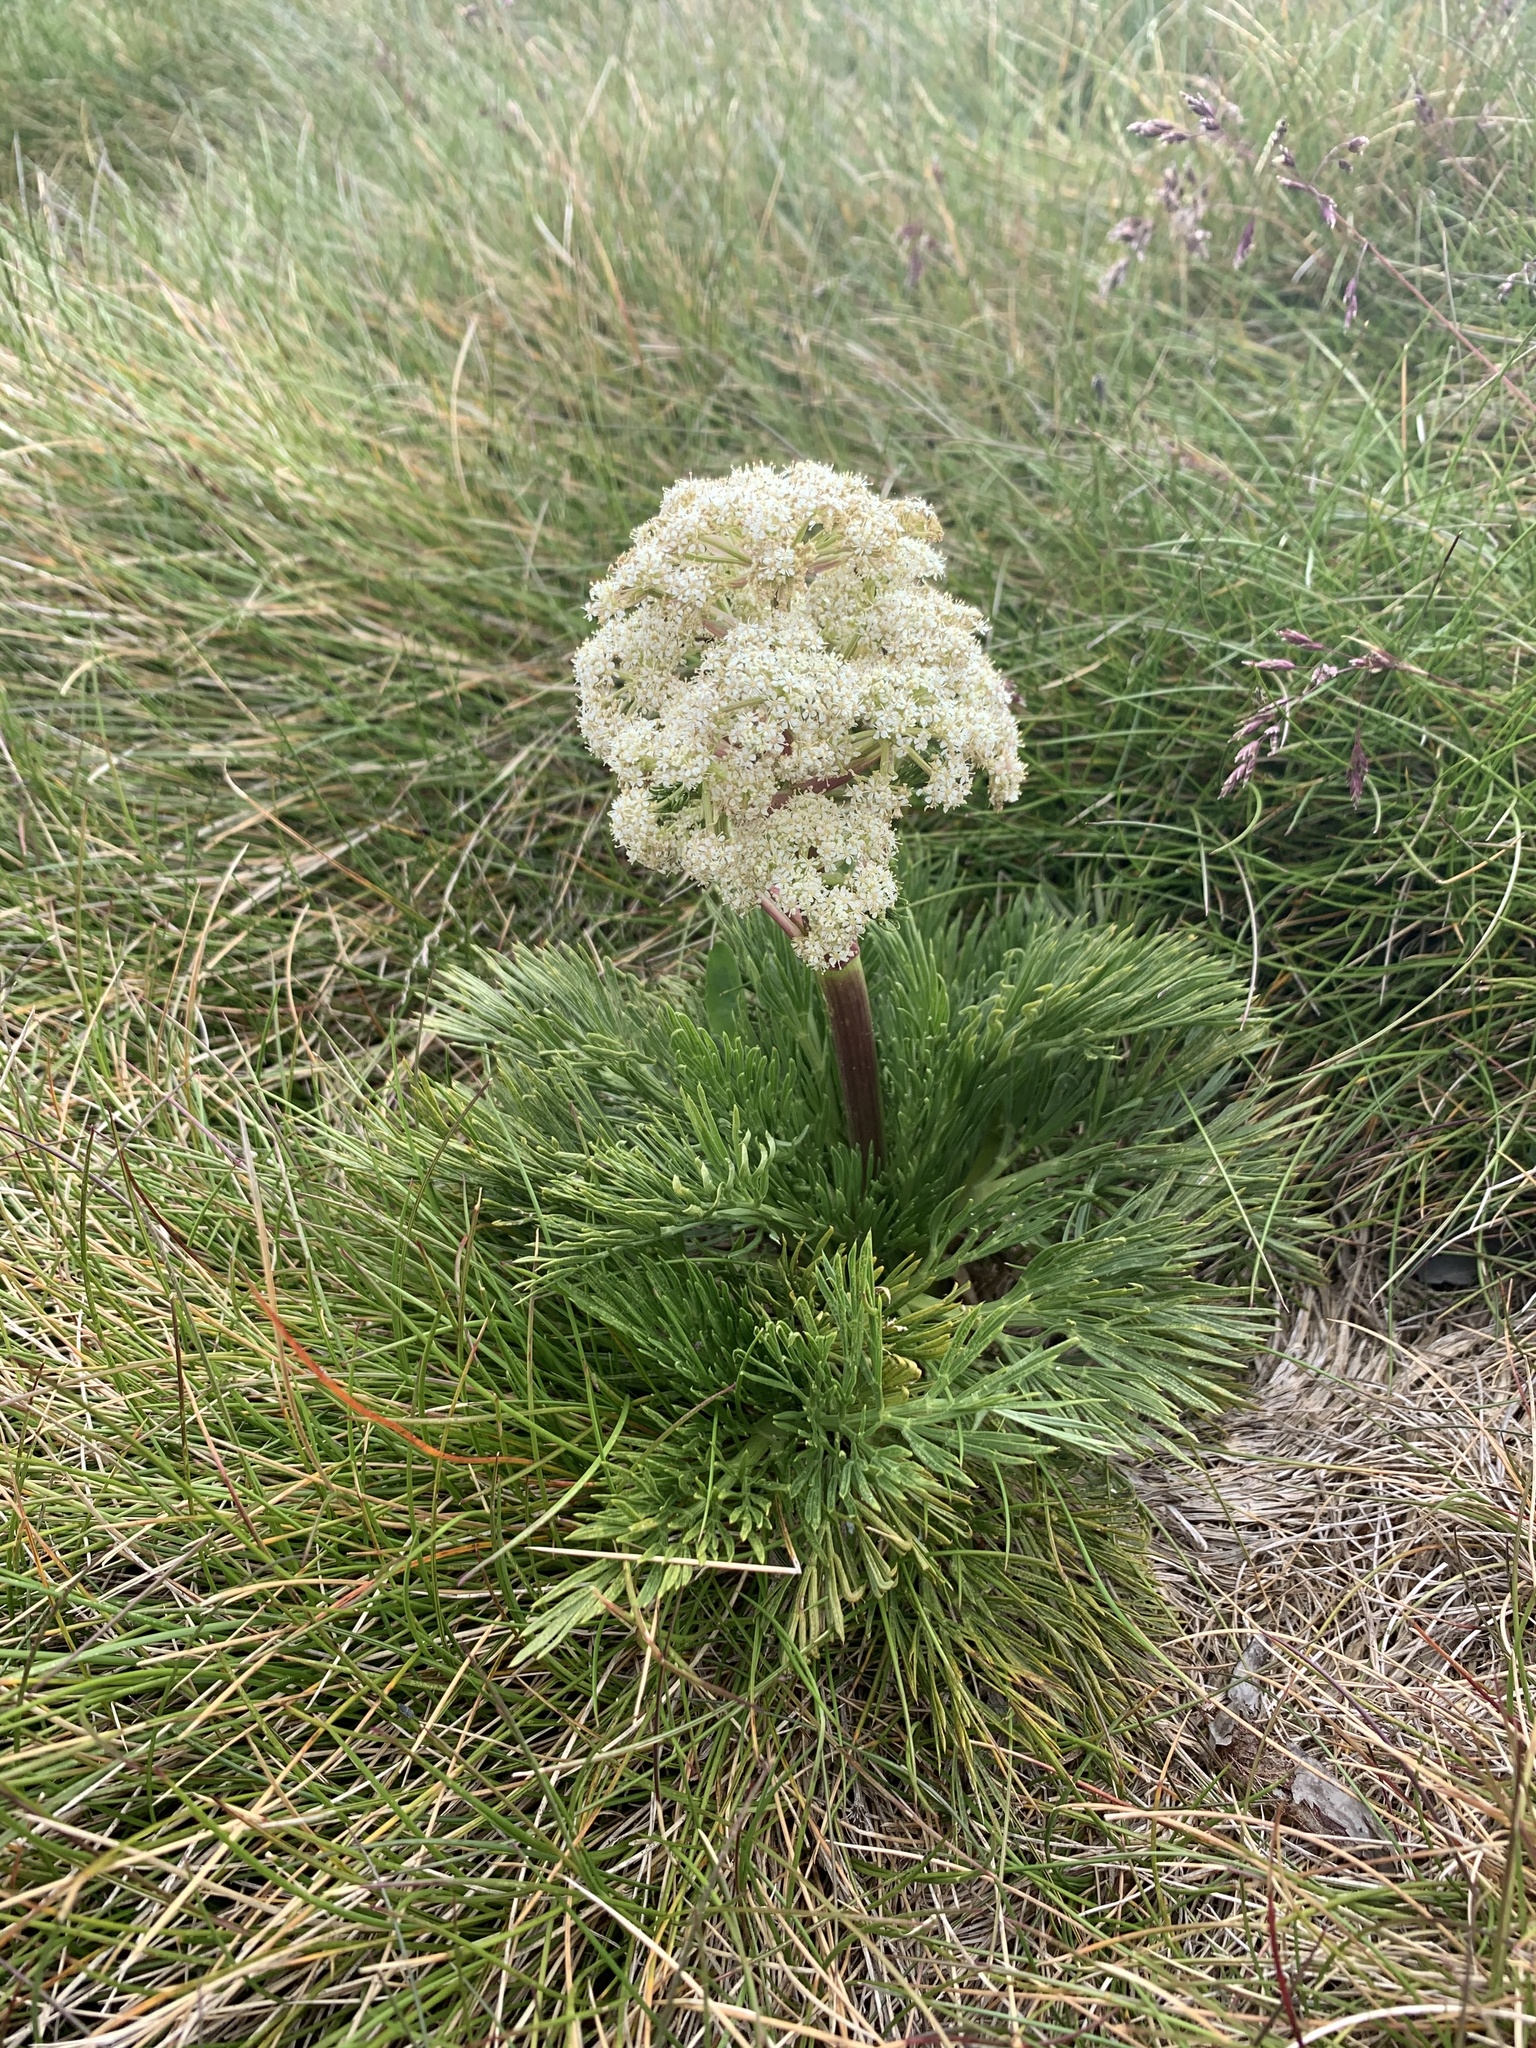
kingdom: Plantae
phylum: Tracheophyta
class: Magnoliopsida
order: Apiales
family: Apiaceae
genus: Aciphylla
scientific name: Aciphylla glacialis
